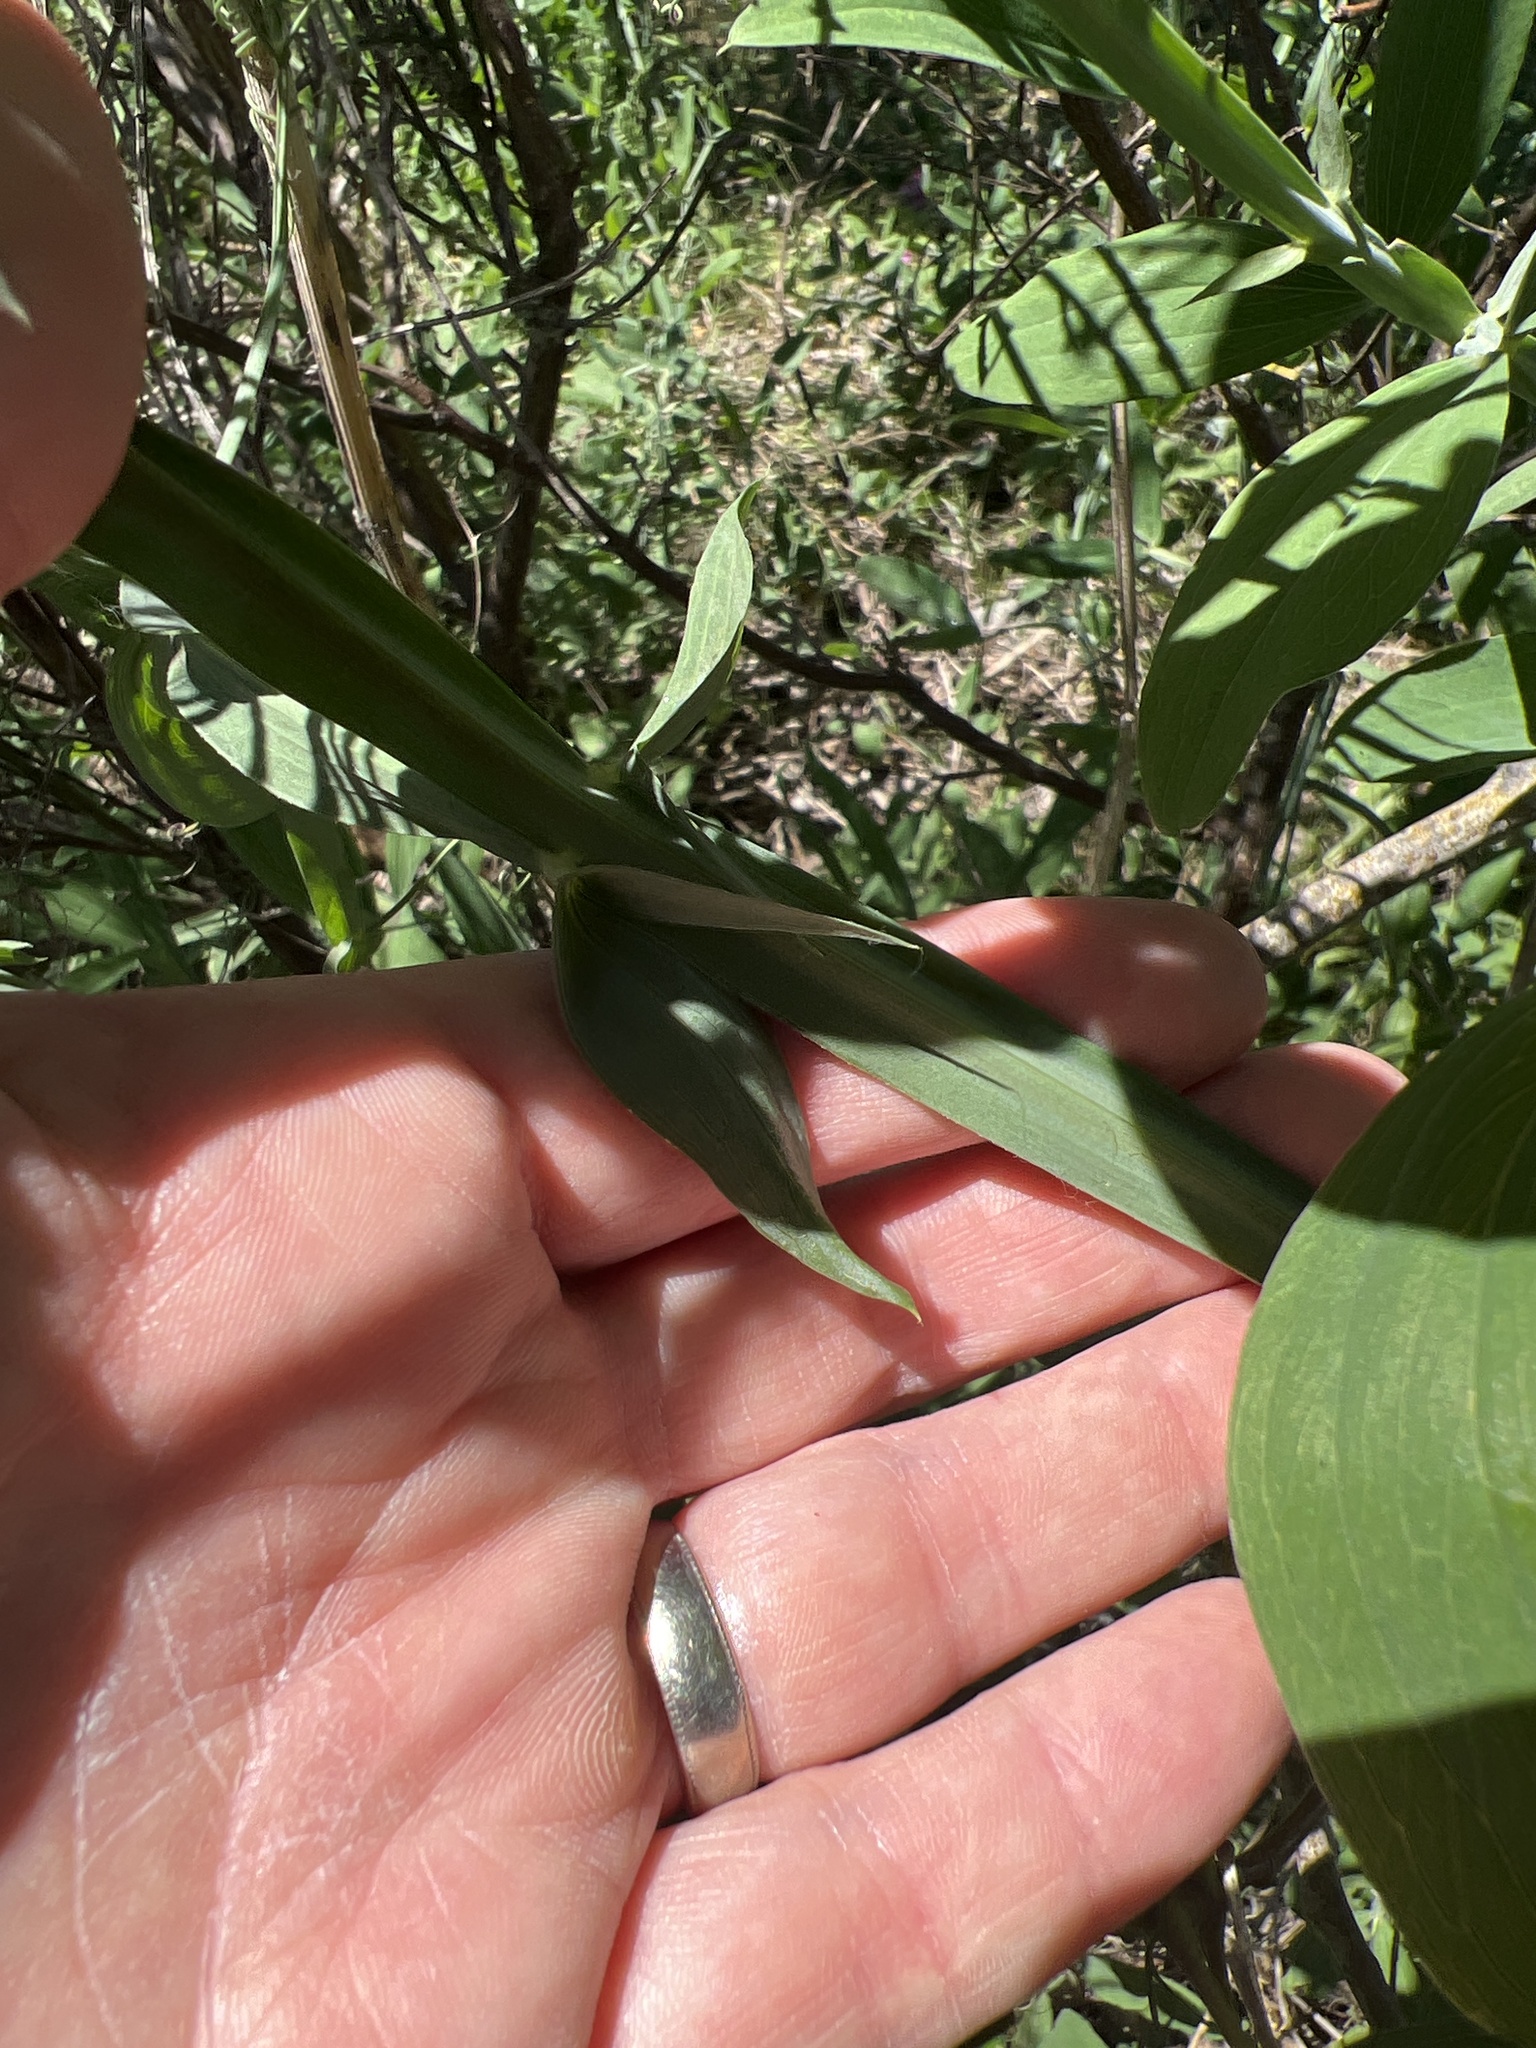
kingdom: Plantae
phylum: Tracheophyta
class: Magnoliopsida
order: Fabales
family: Fabaceae
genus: Lathyrus
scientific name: Lathyrus latifolius
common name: Perennial pea
